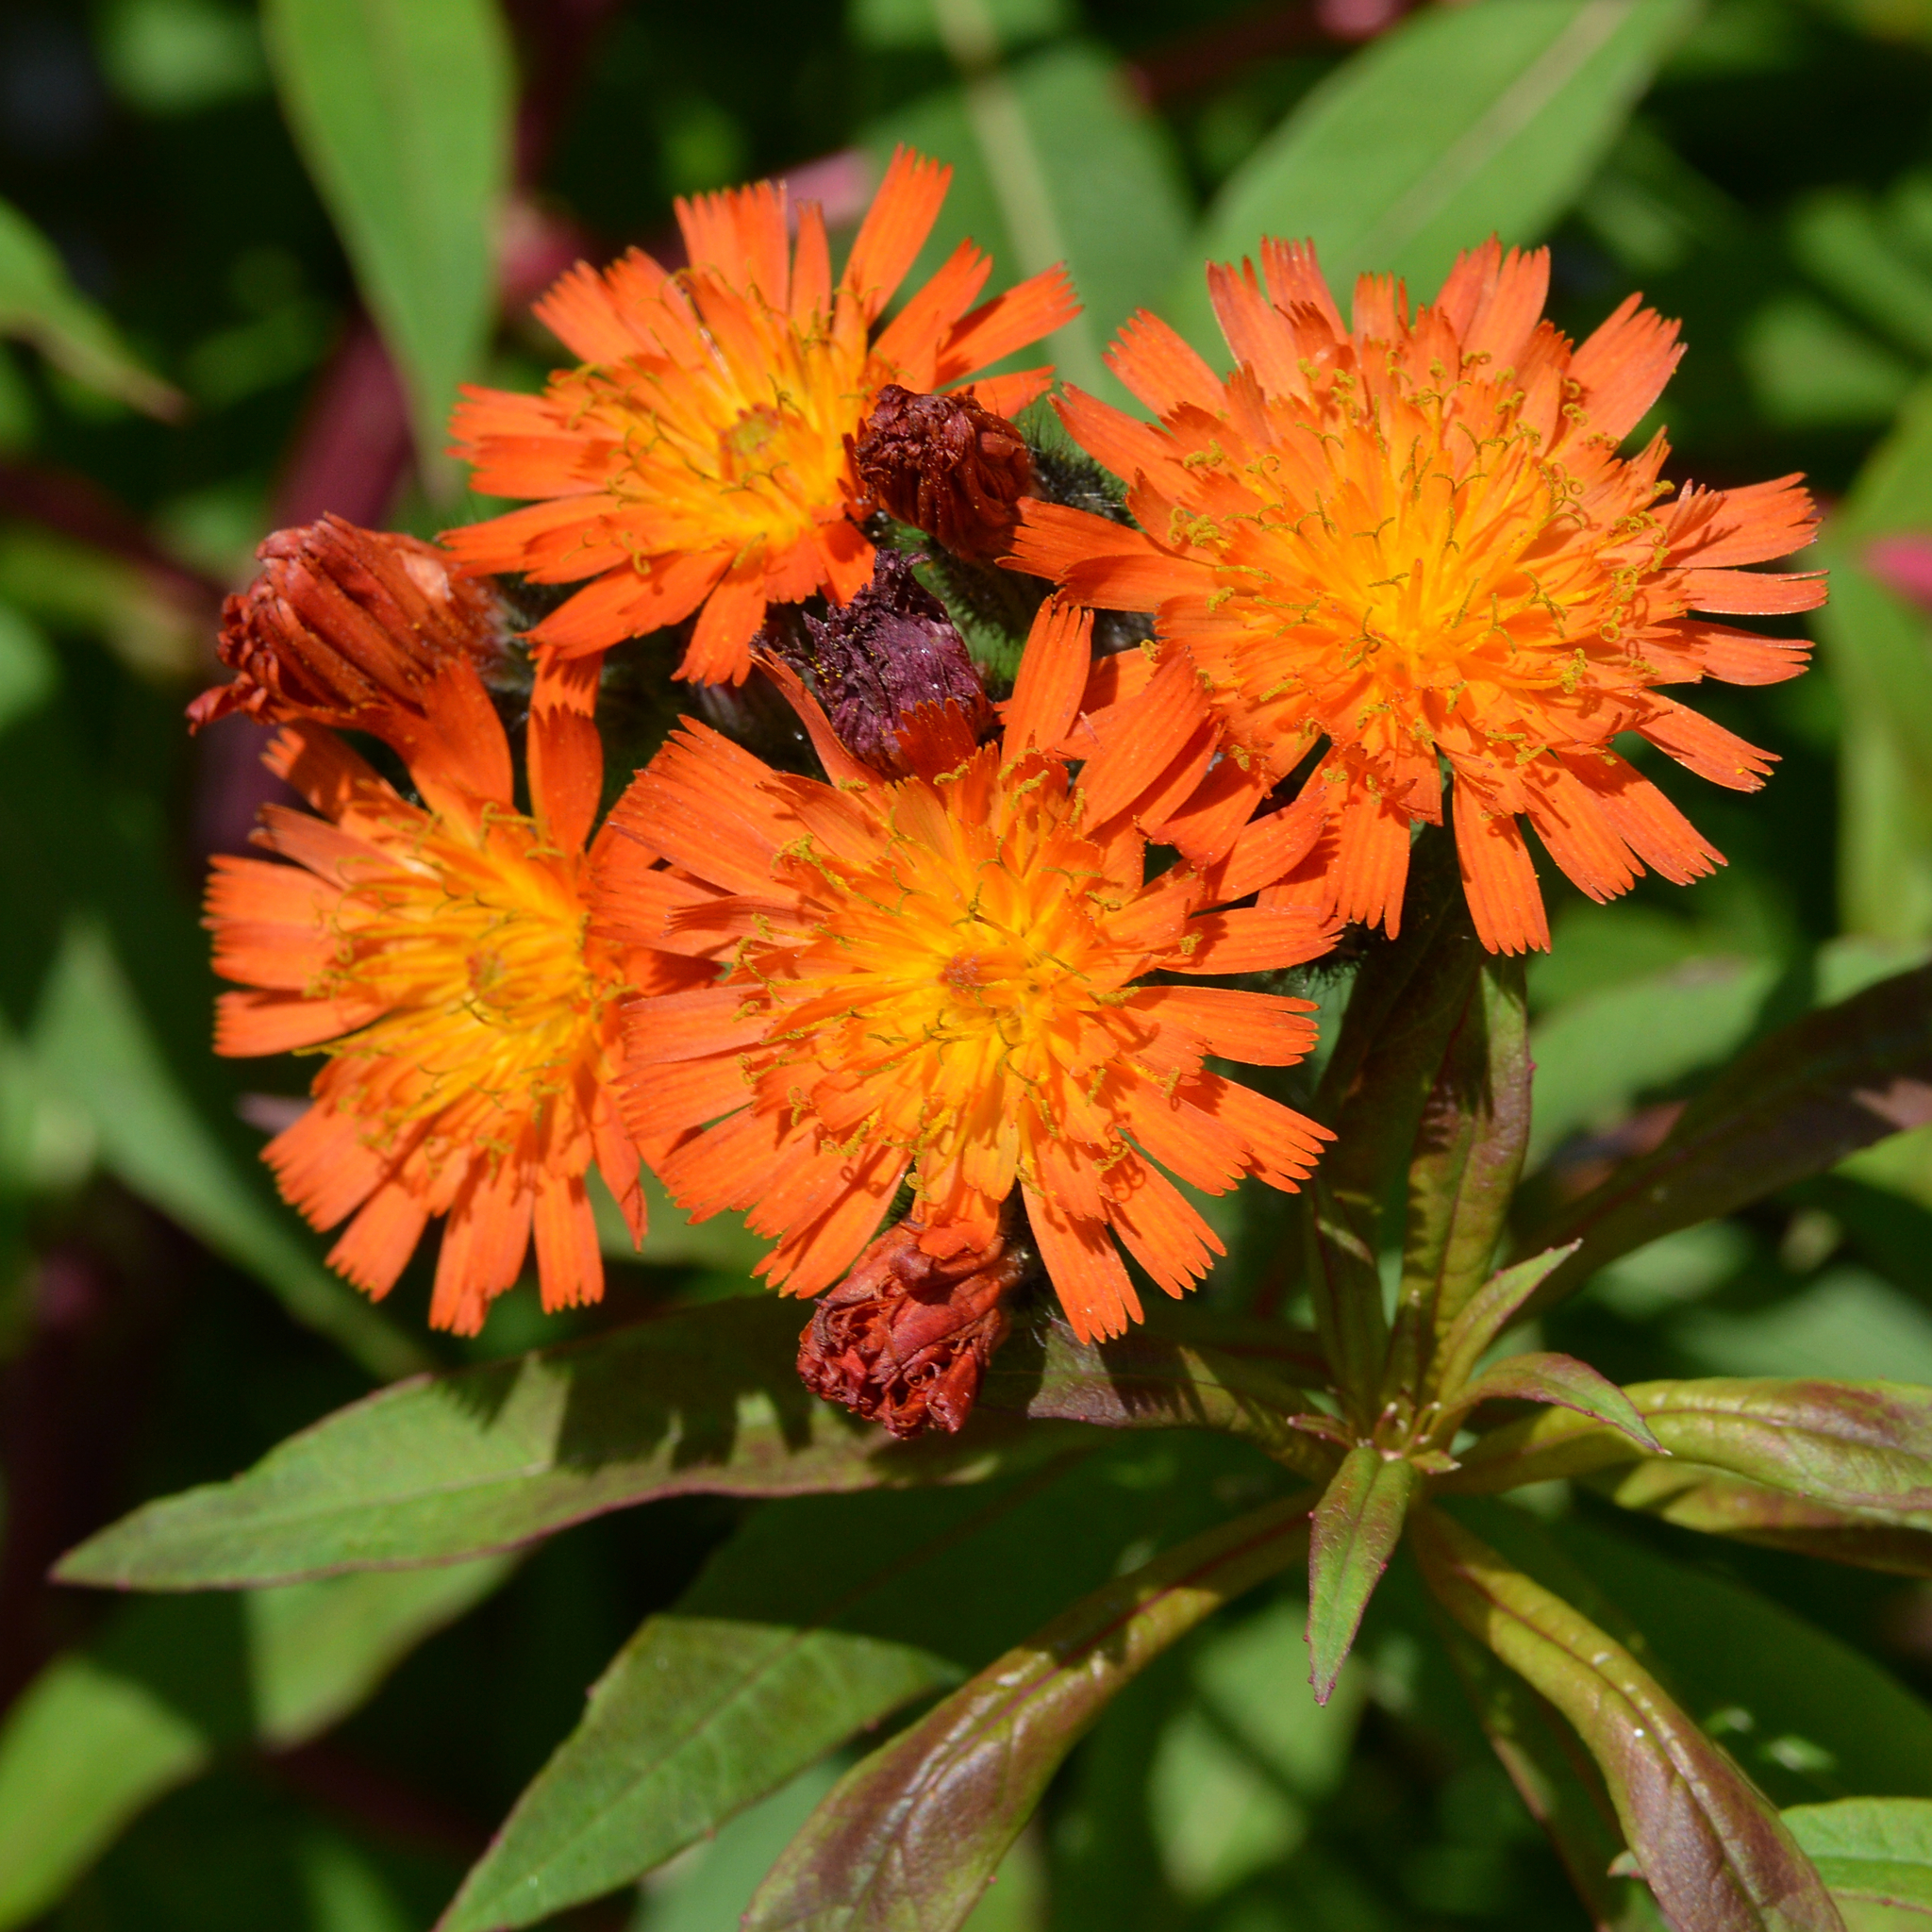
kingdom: Plantae
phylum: Tracheophyta
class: Magnoliopsida
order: Asterales
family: Asteraceae
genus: Pilosella
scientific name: Pilosella aurantiaca
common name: Fox-and-cubs
